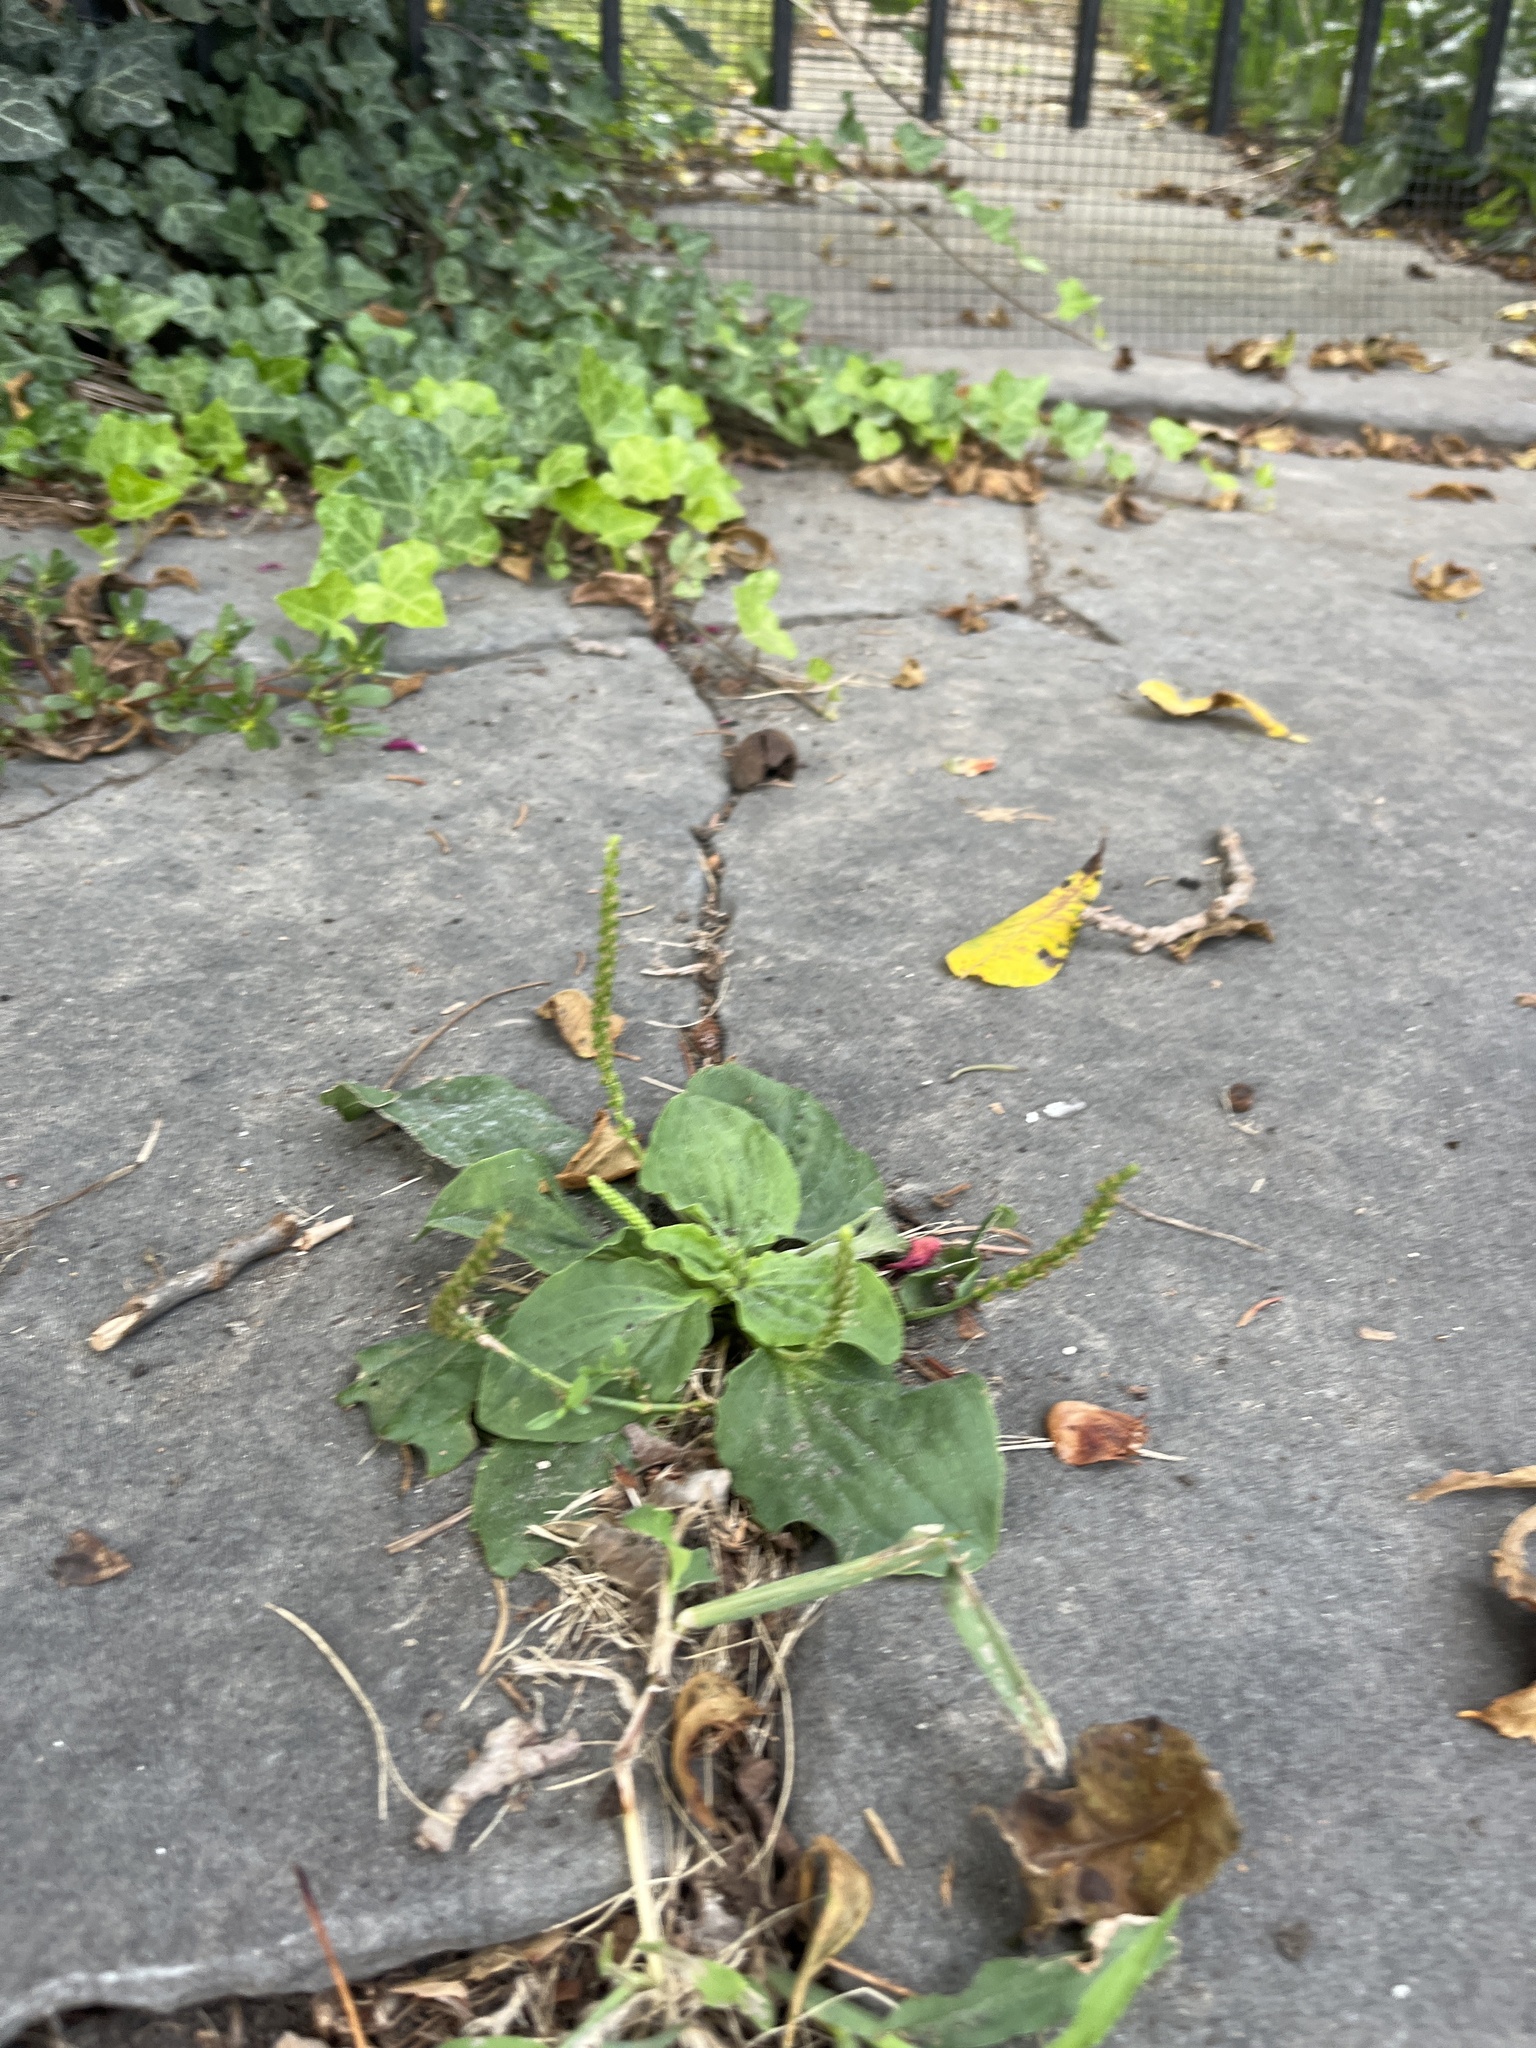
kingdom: Plantae
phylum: Tracheophyta
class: Magnoliopsida
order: Lamiales
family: Plantaginaceae
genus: Plantago
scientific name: Plantago major
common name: Common plantain
